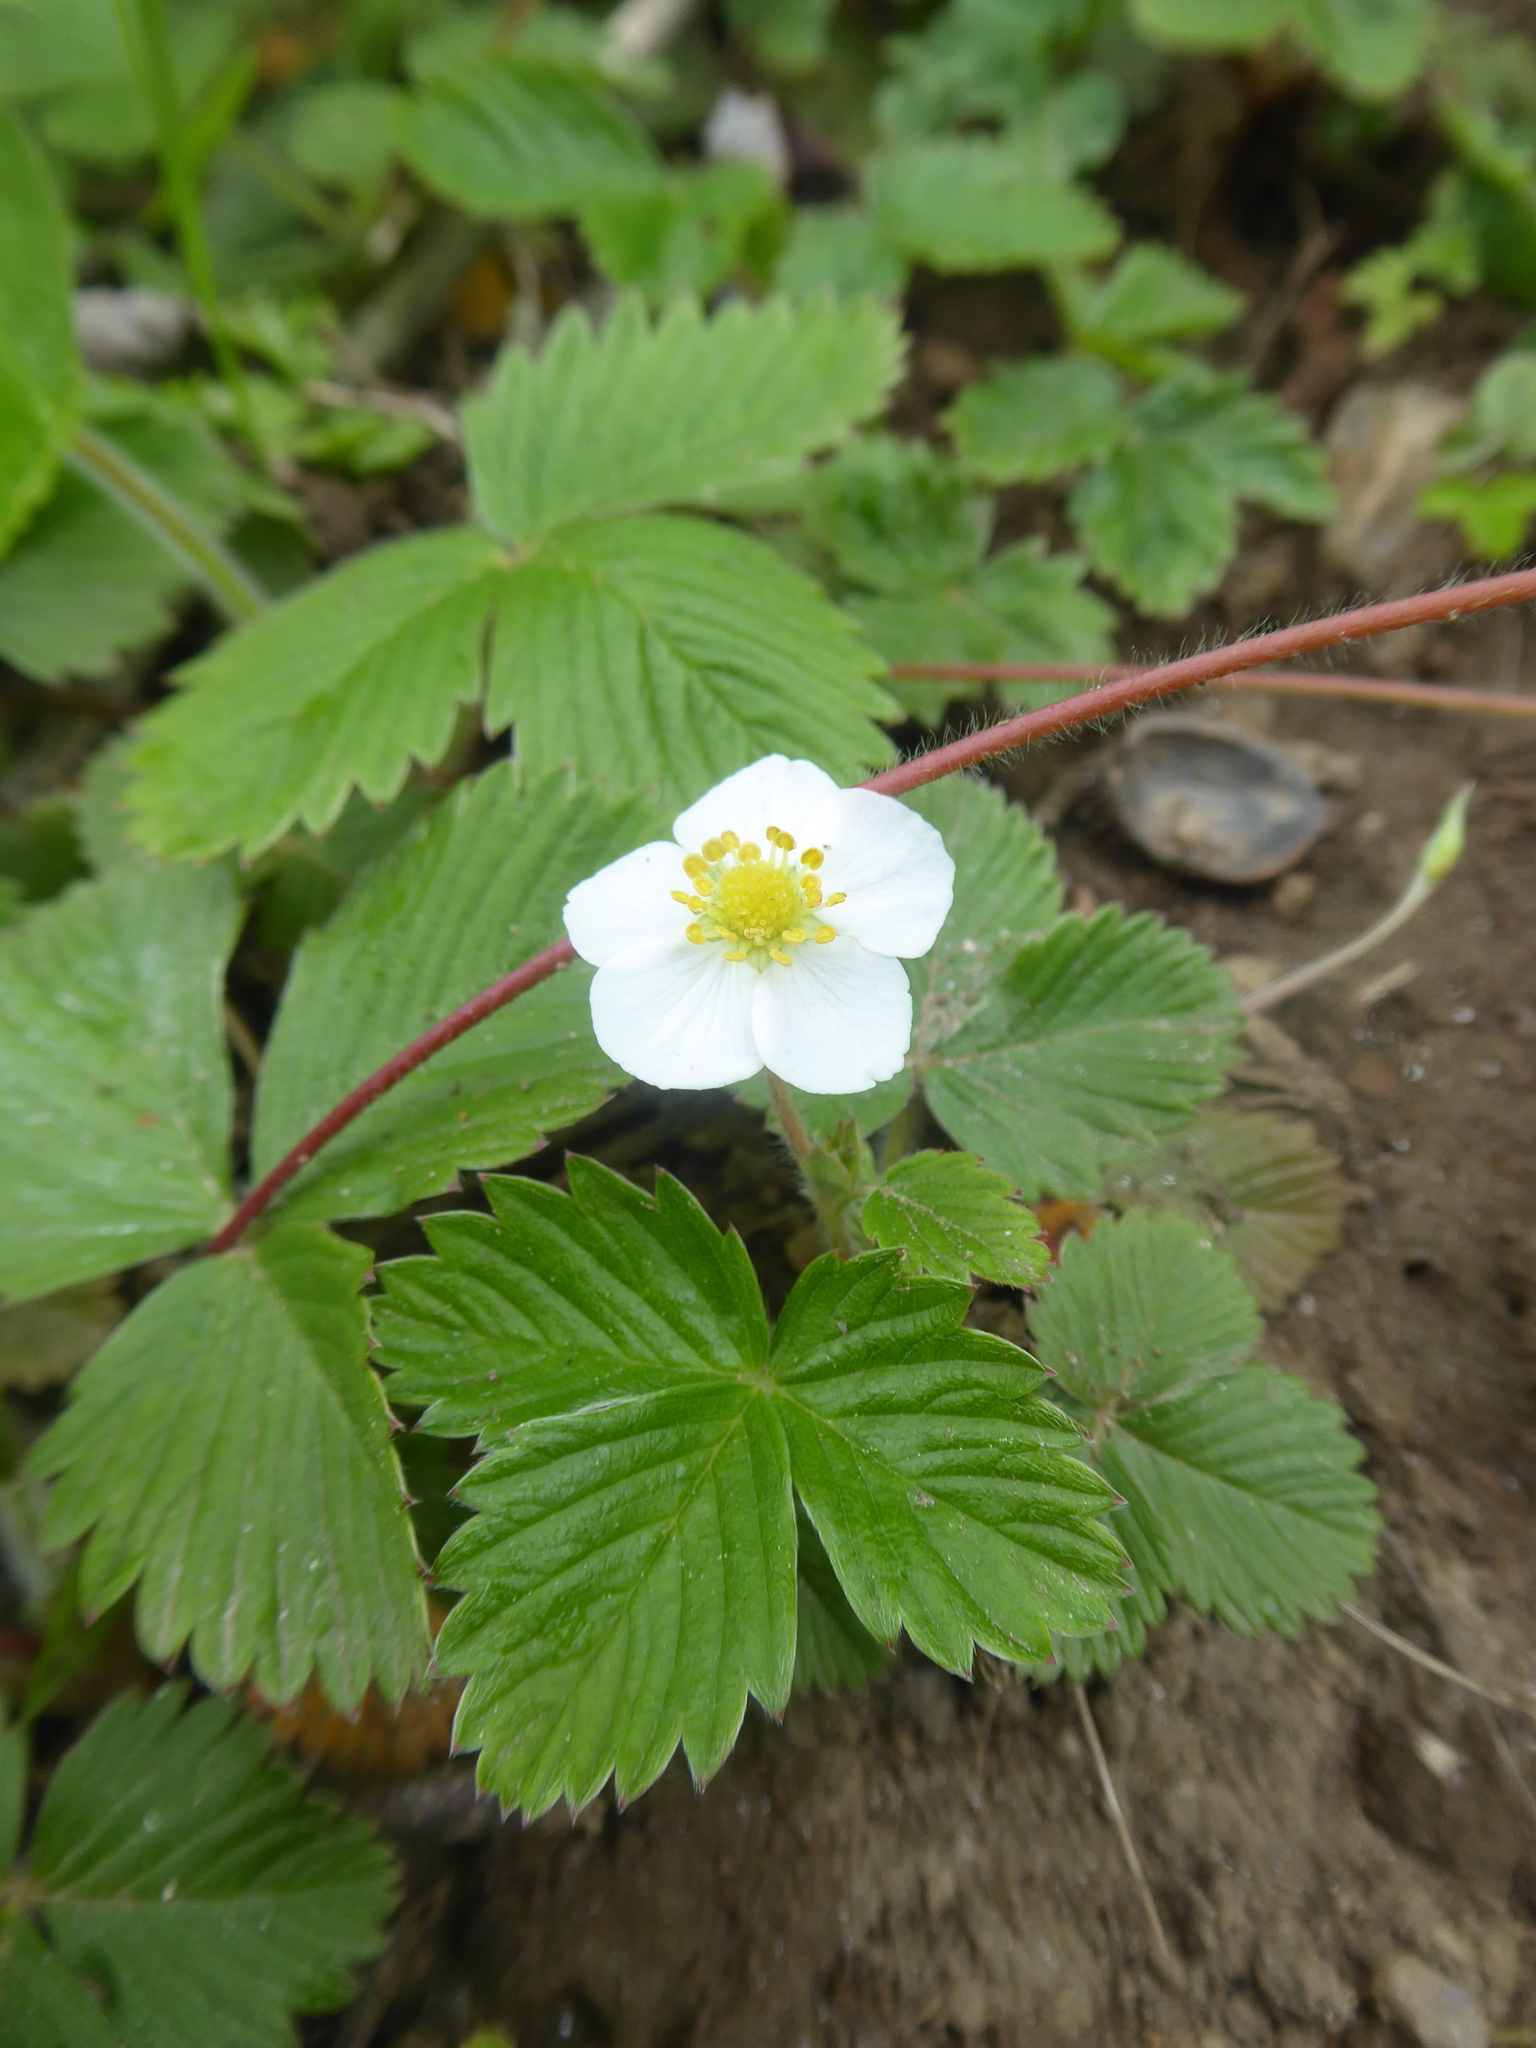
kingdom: Plantae
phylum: Tracheophyta
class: Magnoliopsida
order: Rosales
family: Rosaceae
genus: Fragaria
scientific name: Fragaria vesca
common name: Wild strawberry
